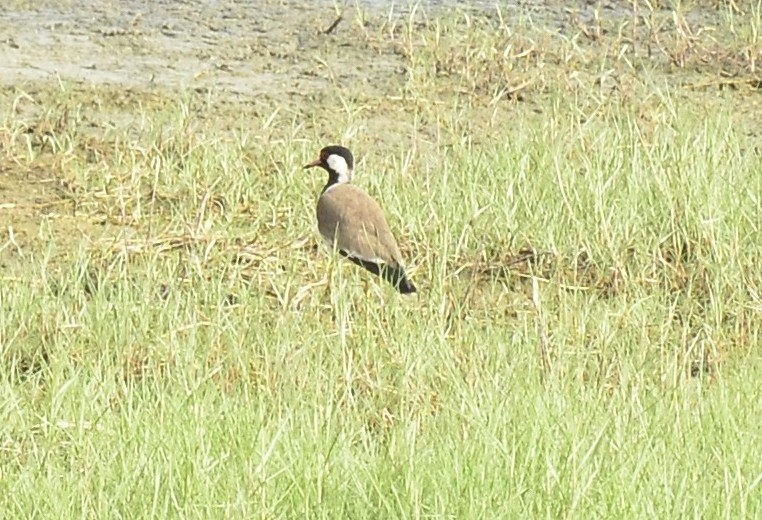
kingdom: Animalia
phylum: Chordata
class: Aves
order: Charadriiformes
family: Charadriidae
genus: Vanellus
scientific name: Vanellus indicus
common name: Red-wattled lapwing
